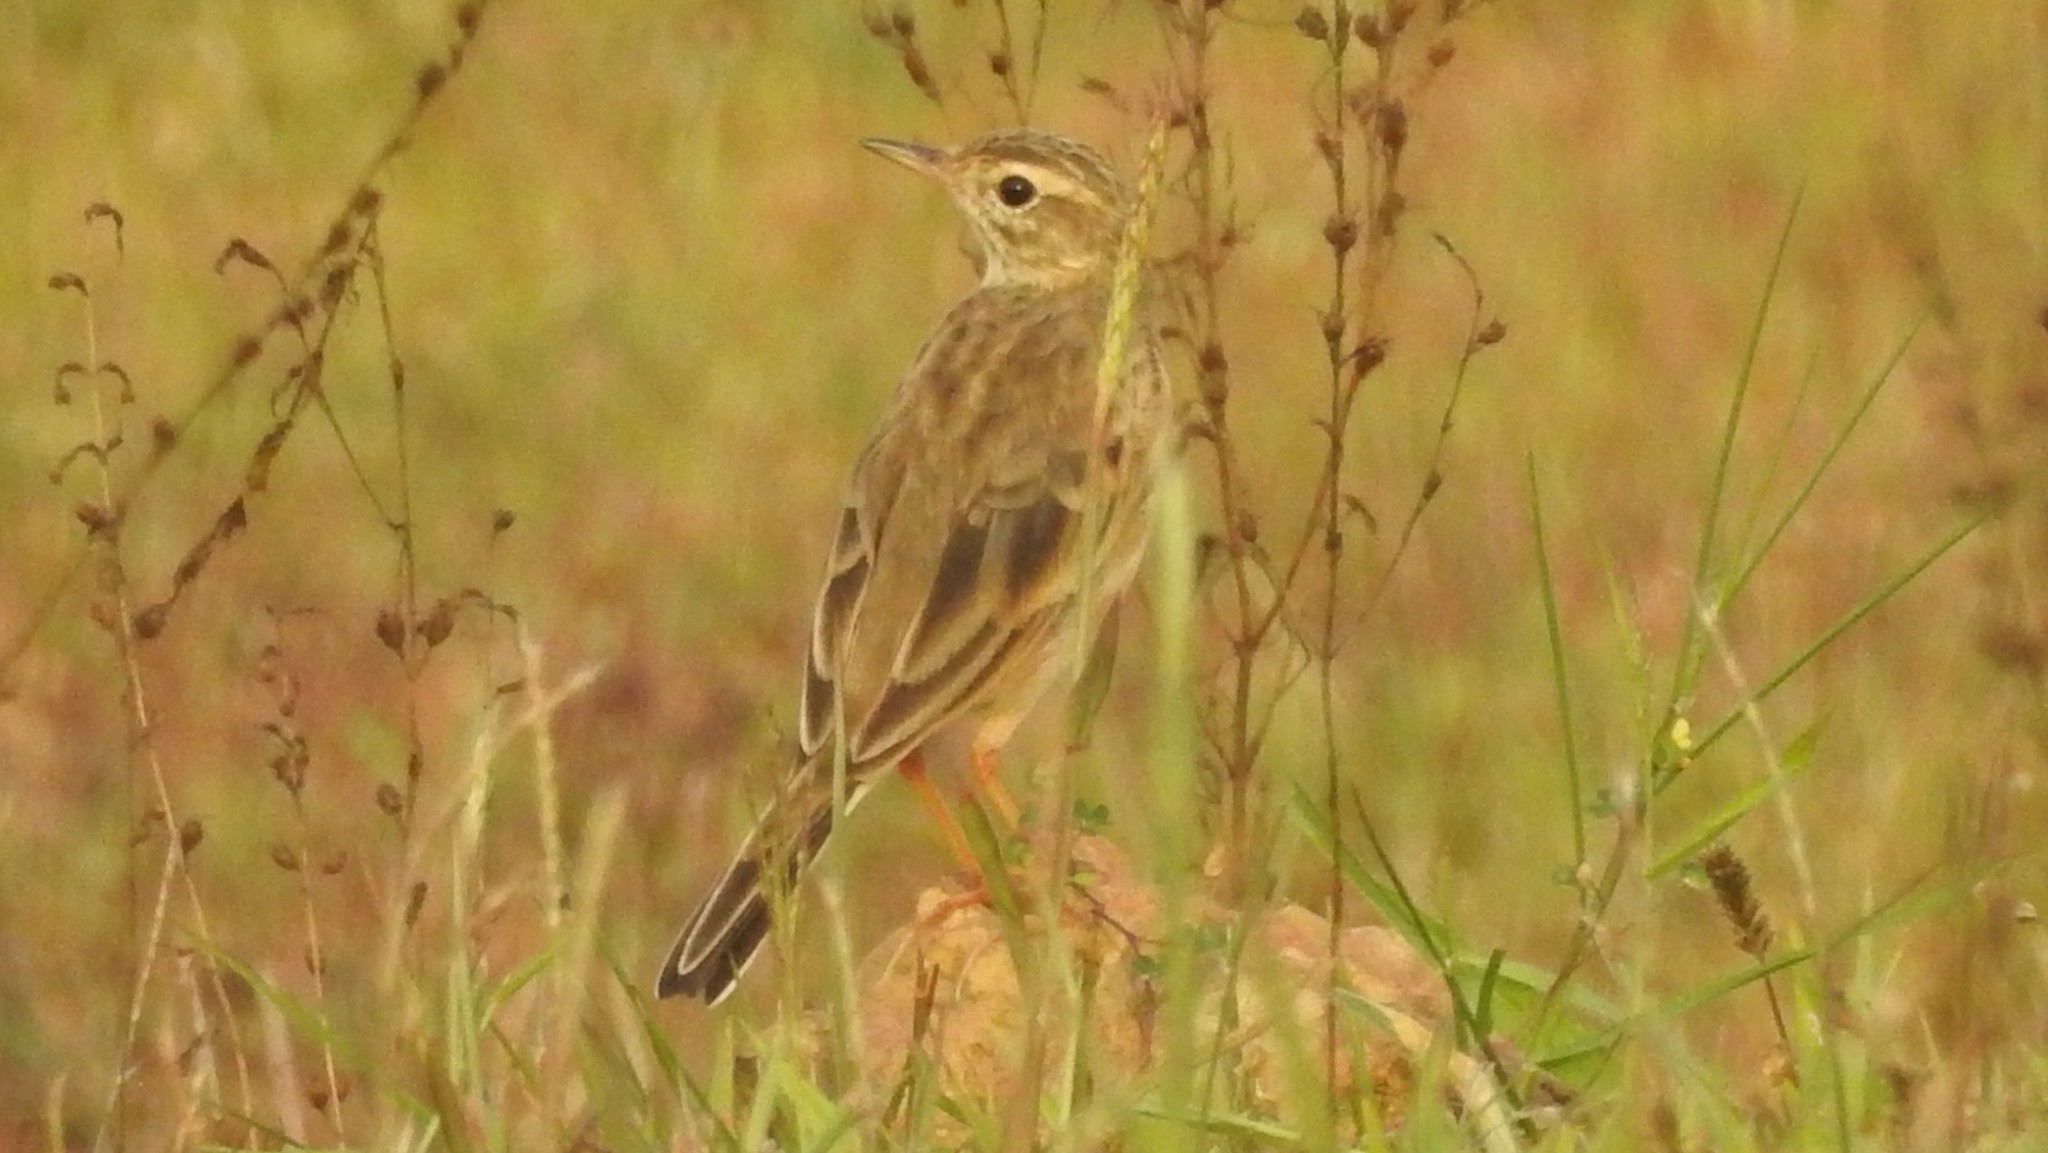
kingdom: Animalia
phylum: Chordata
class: Aves
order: Passeriformes
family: Motacillidae
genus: Anthus
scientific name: Anthus rufulus
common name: Paddyfield pipit
